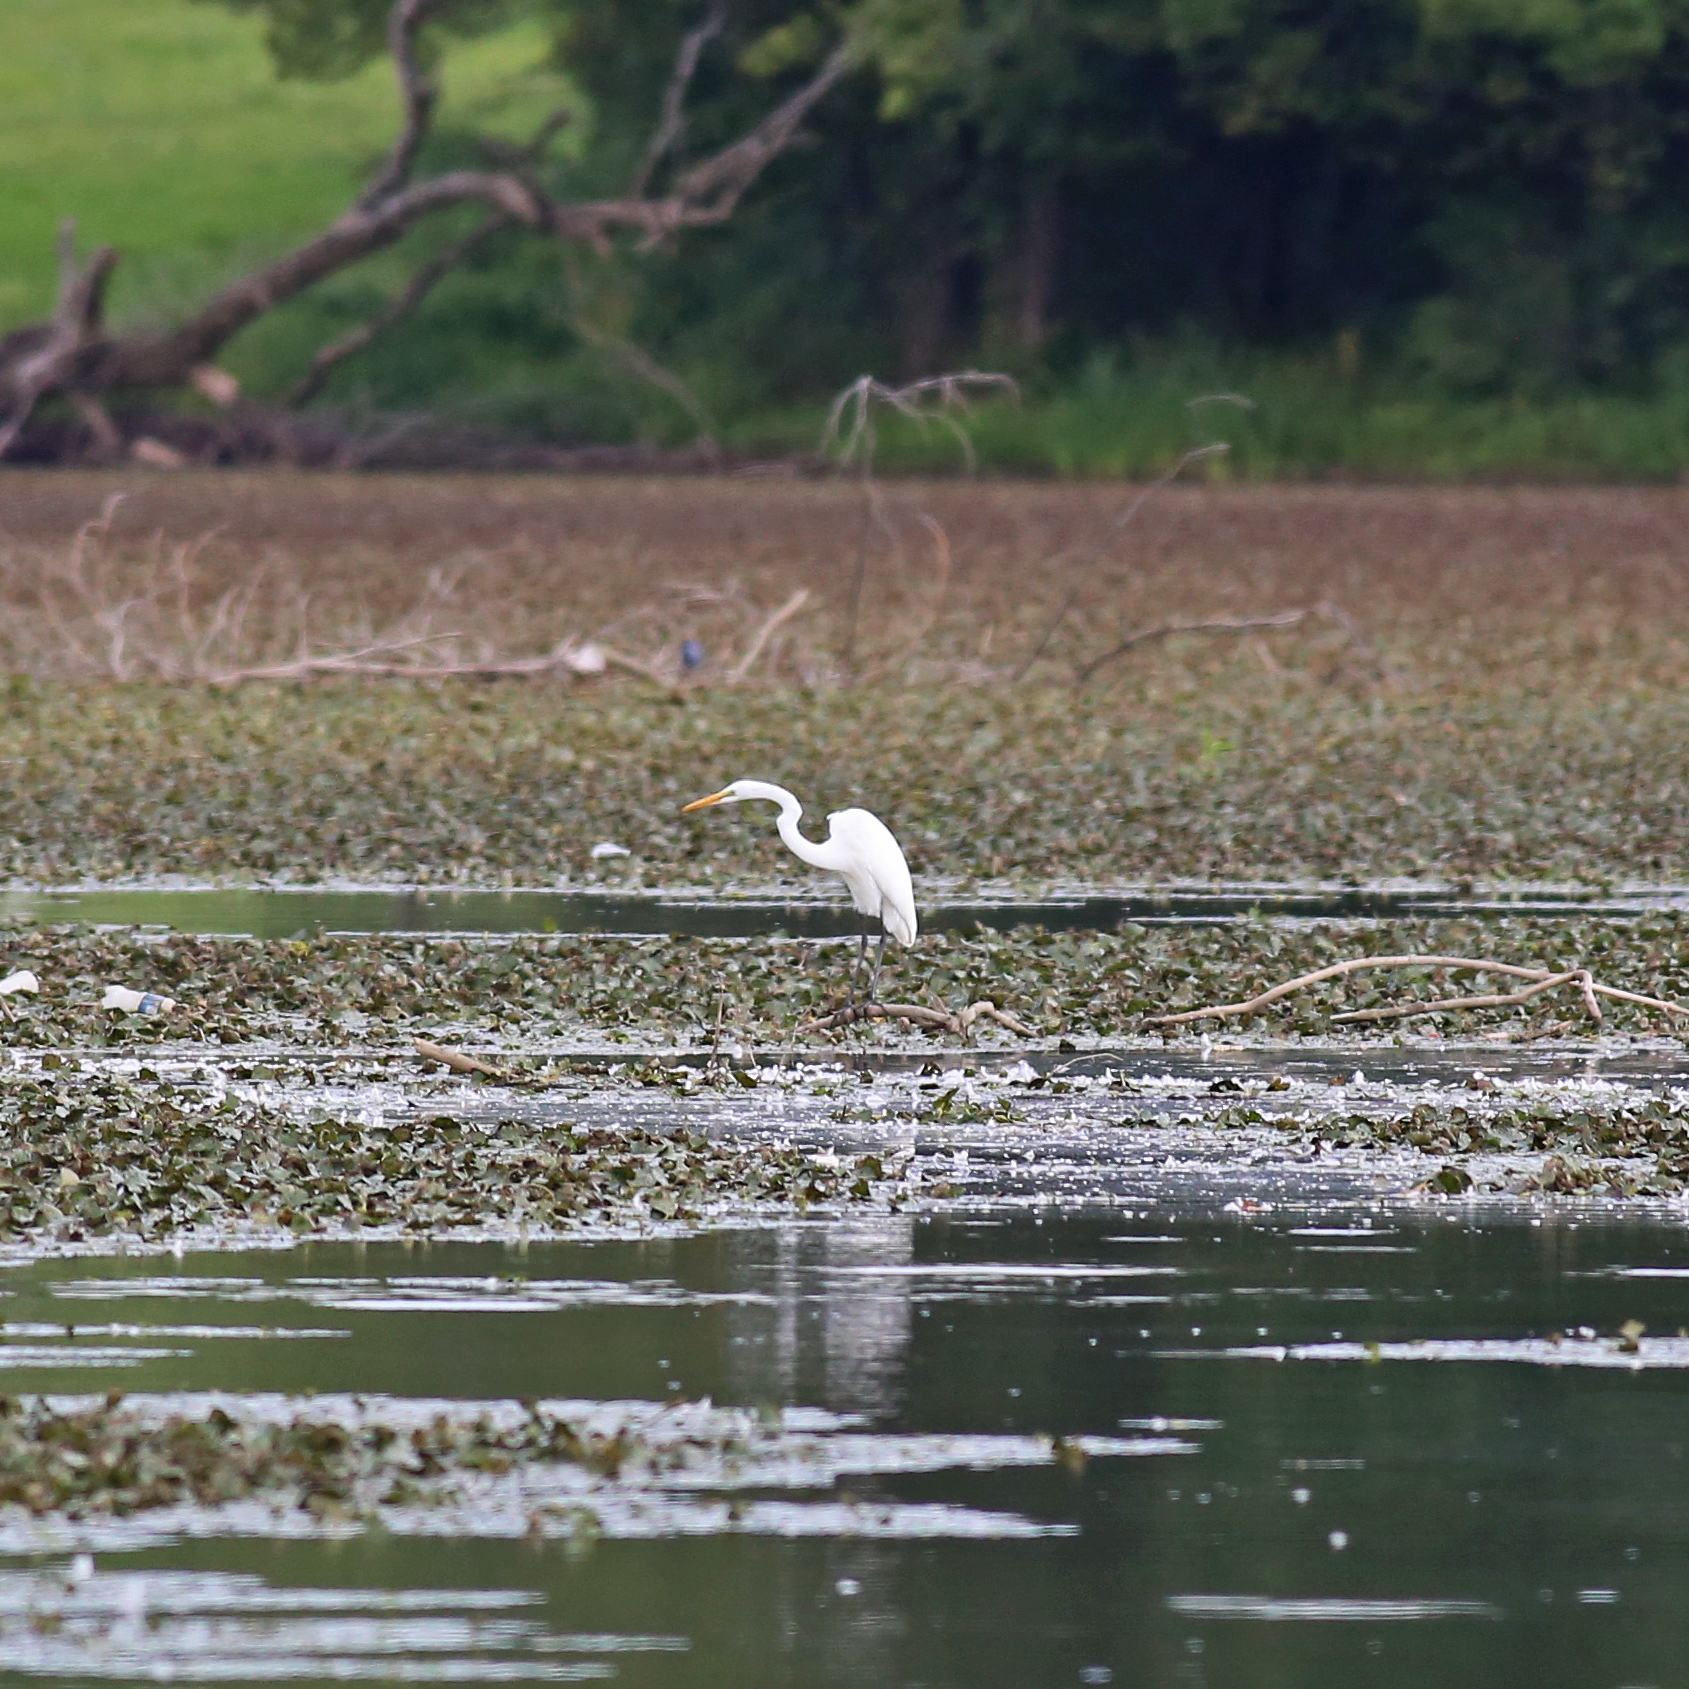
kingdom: Animalia
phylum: Chordata
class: Aves
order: Pelecaniformes
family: Ardeidae
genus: Ardea
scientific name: Ardea alba
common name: Great egret
